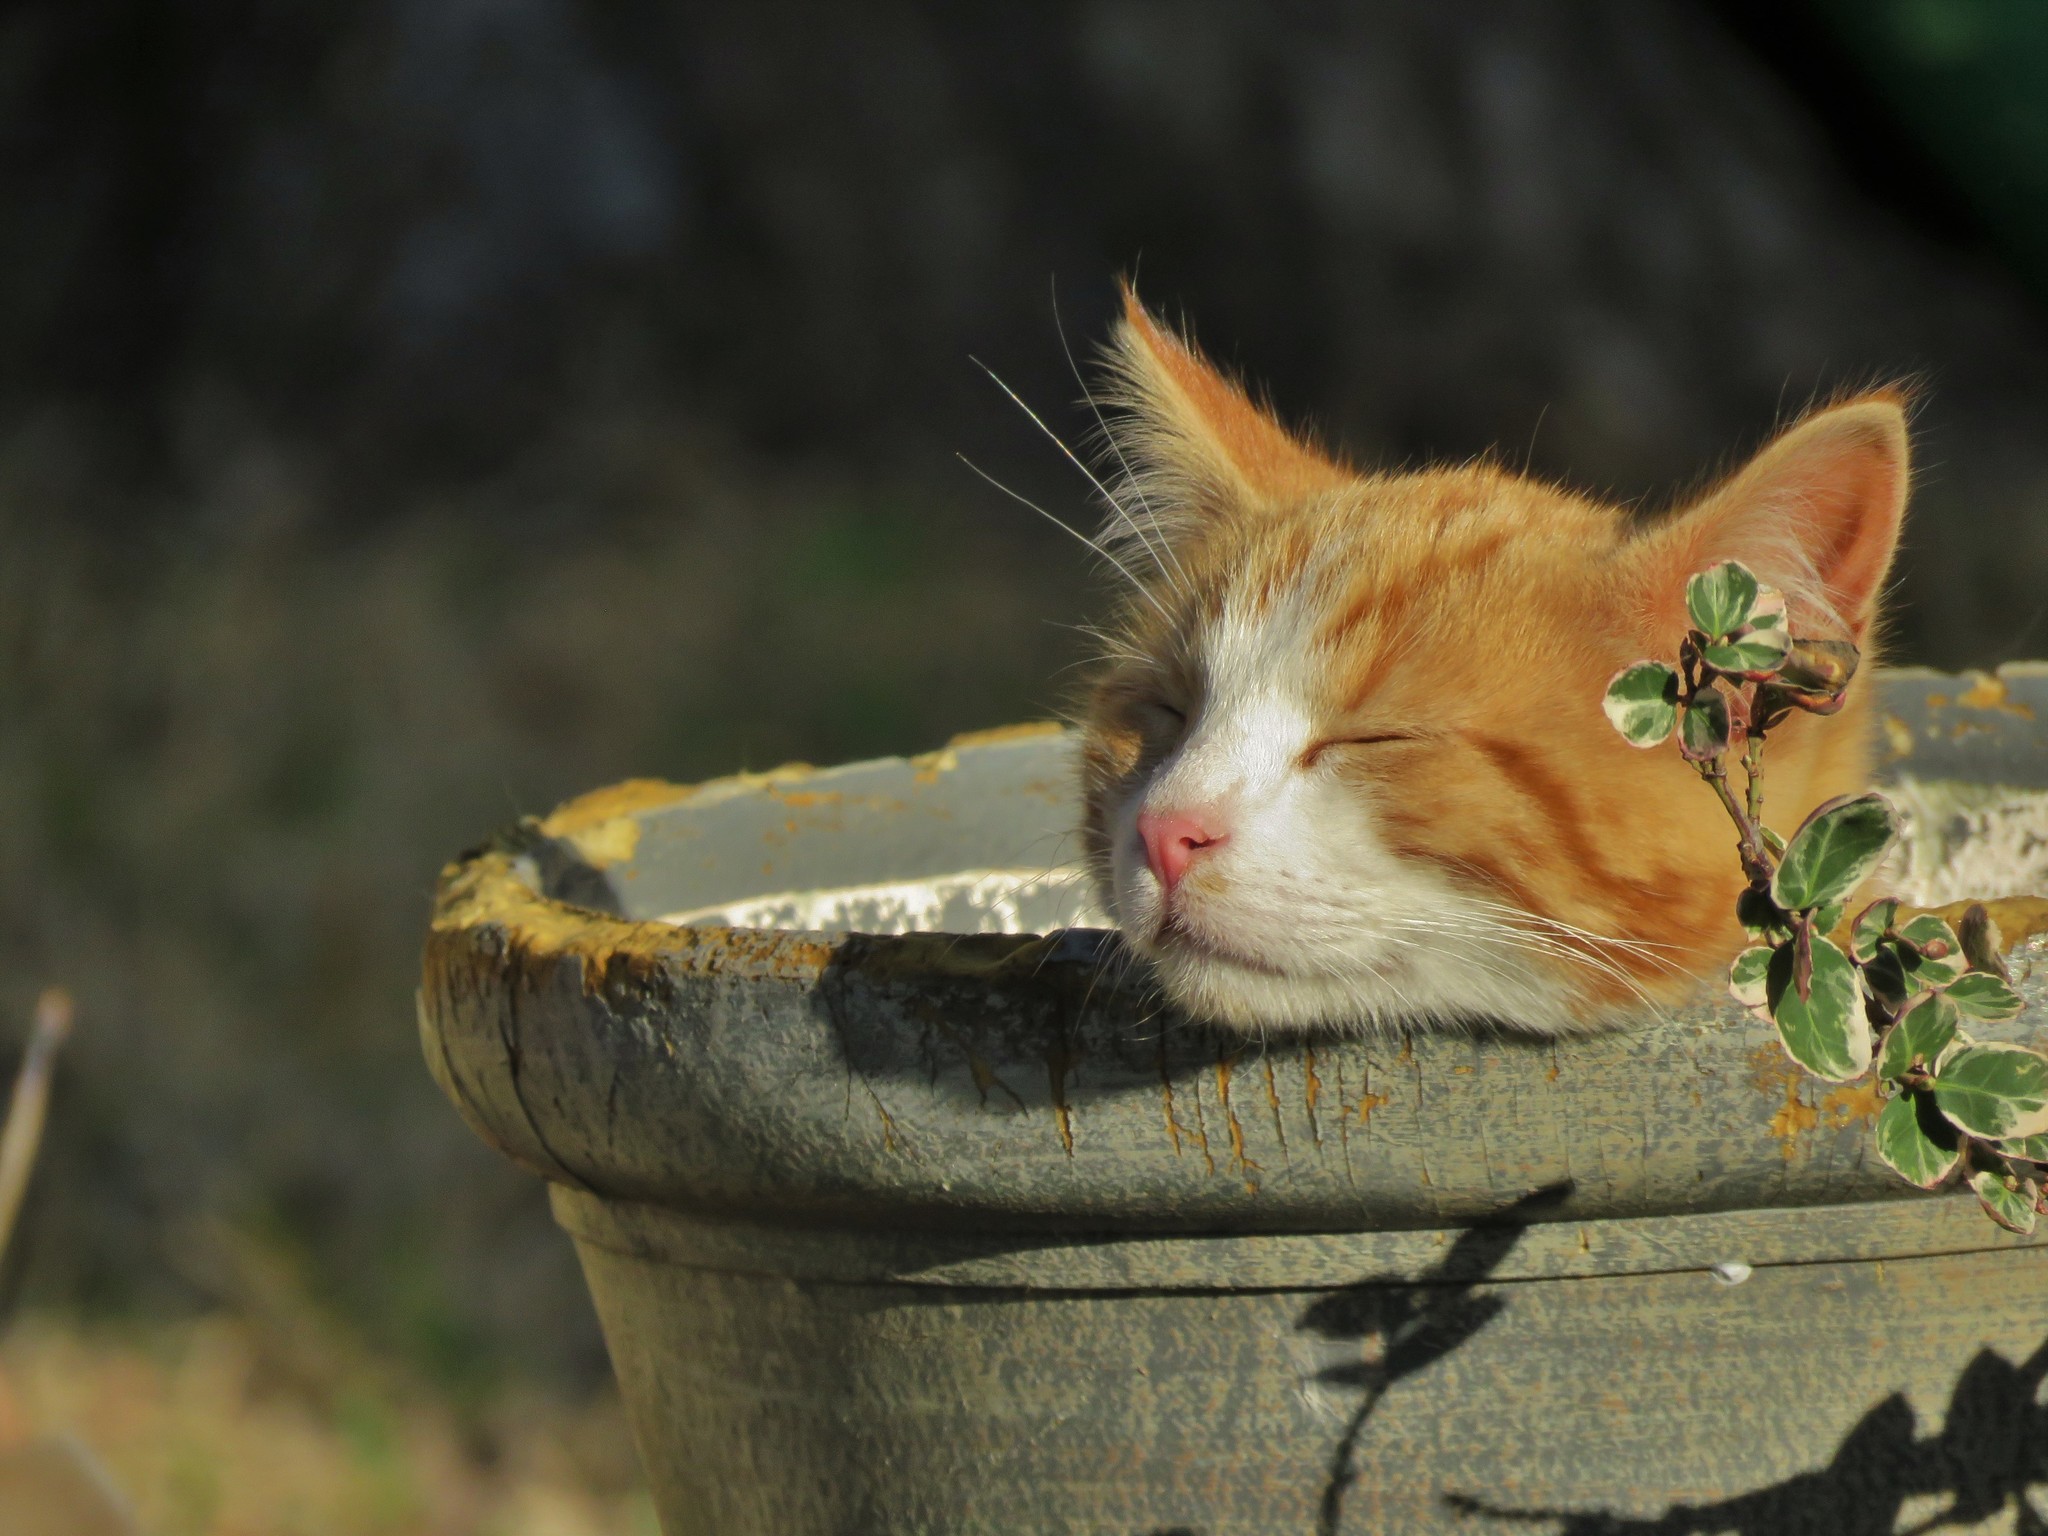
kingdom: Animalia
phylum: Chordata
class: Mammalia
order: Carnivora
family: Felidae
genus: Felis
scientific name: Felis catus
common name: Domestic cat
